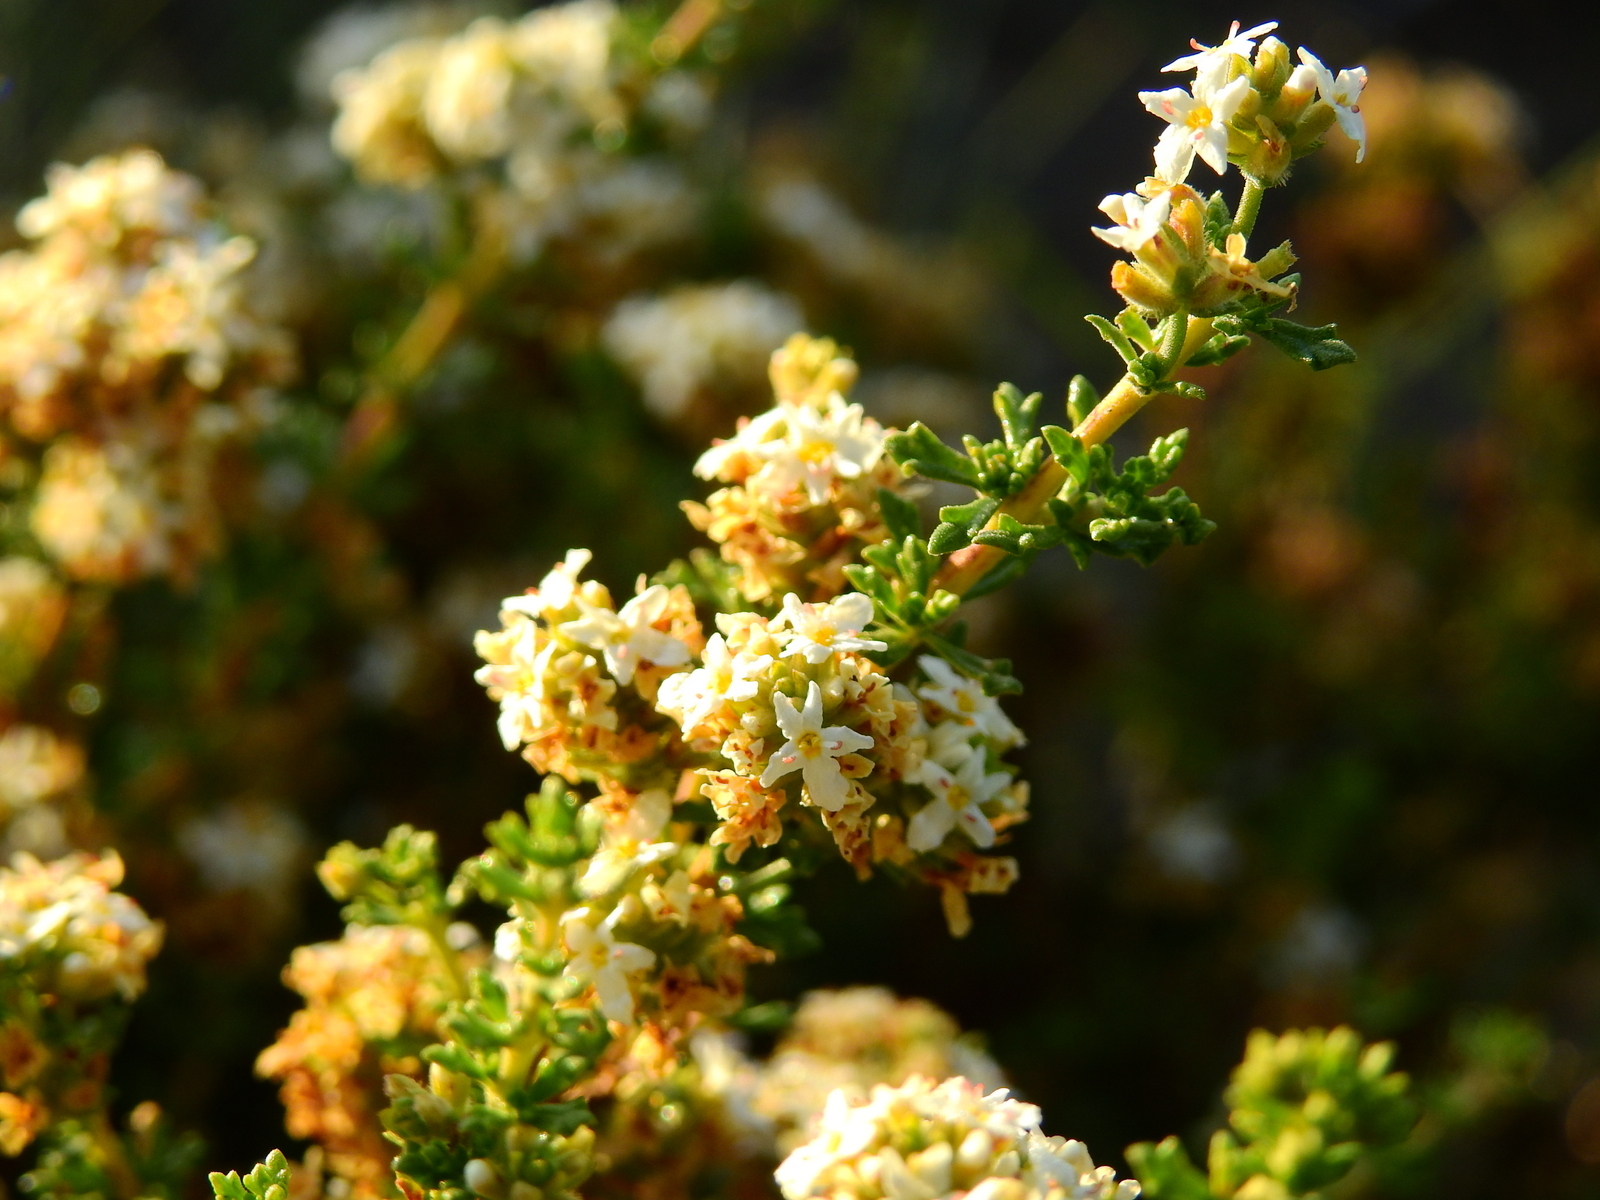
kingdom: Plantae
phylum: Tracheophyta
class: Magnoliopsida
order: Lamiales
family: Verbenaceae
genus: Acantholippia
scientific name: Acantholippia seriphioides
